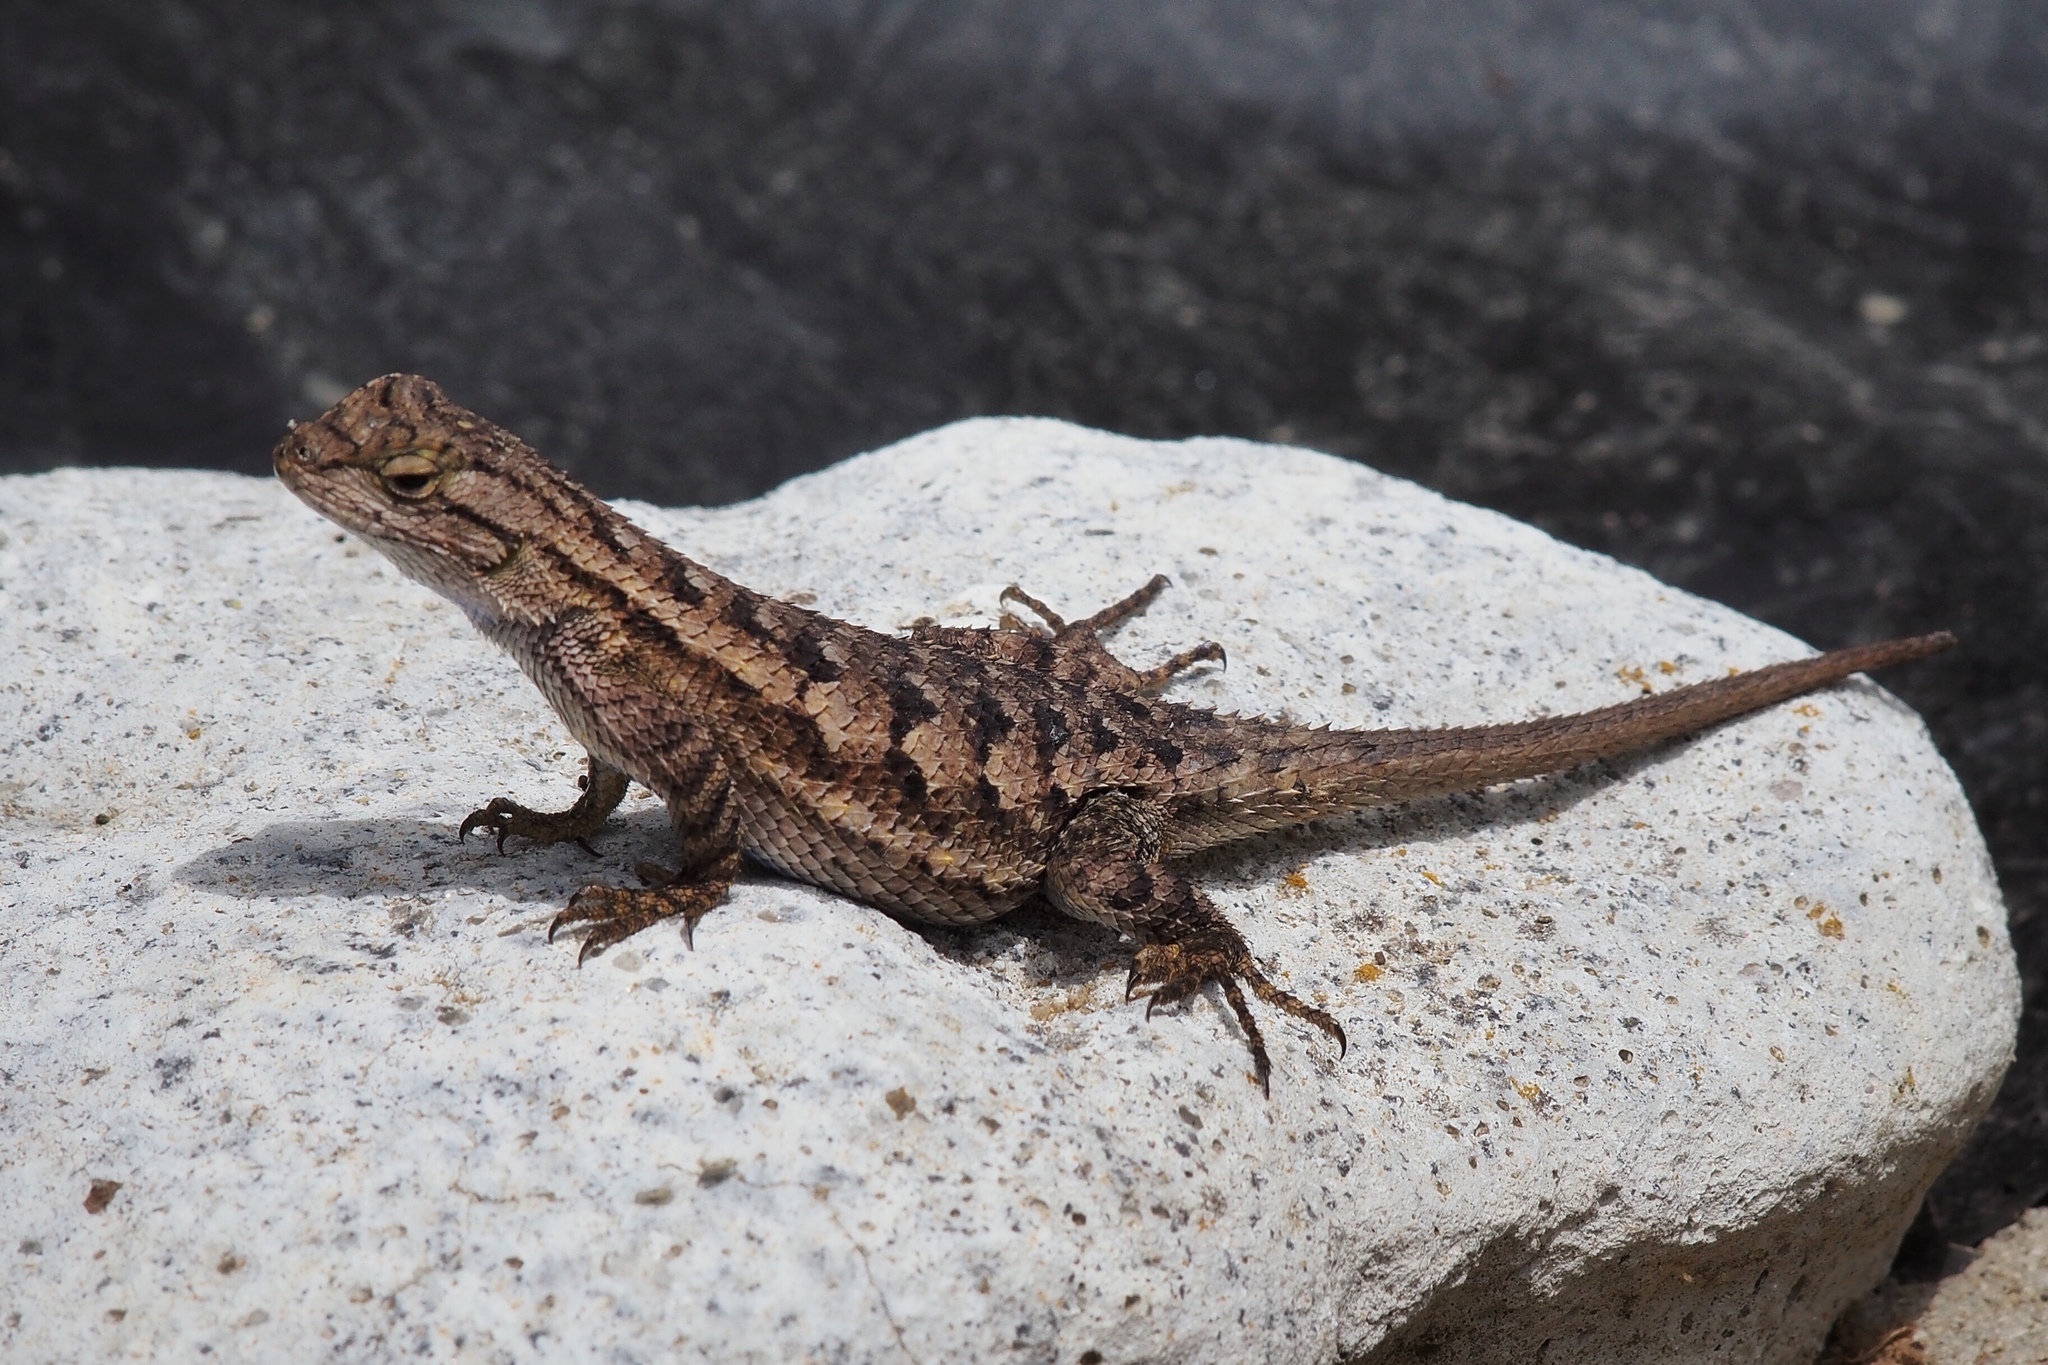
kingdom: Animalia
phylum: Chordata
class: Squamata
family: Phrynosomatidae
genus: Sceloporus
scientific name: Sceloporus occidentalis
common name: Western fence lizard
